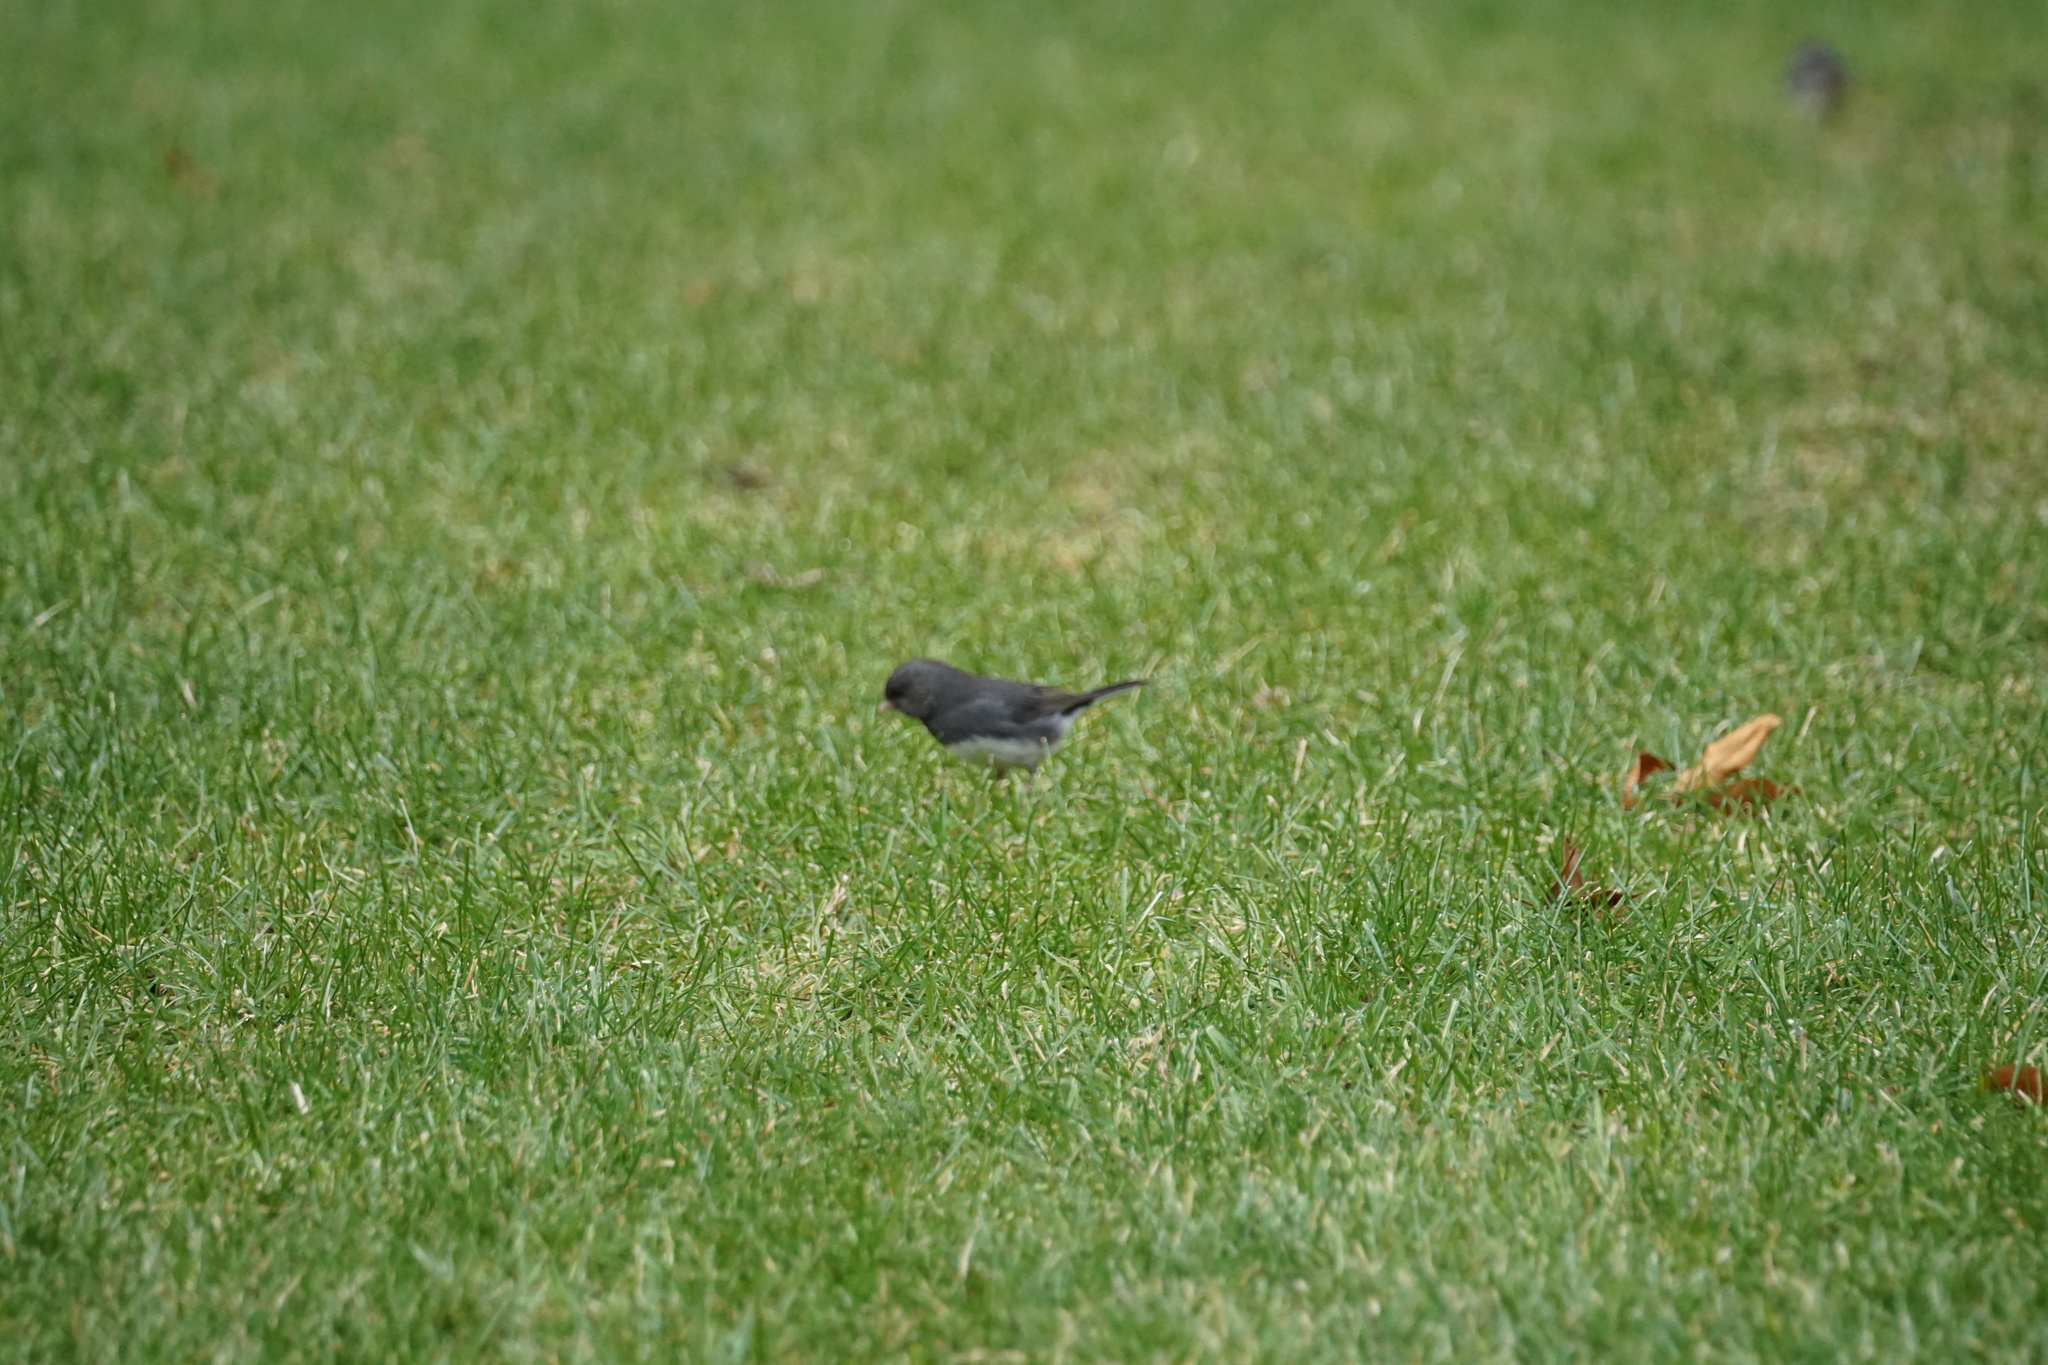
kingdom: Animalia
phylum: Chordata
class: Aves
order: Passeriformes
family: Passerellidae
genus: Junco
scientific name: Junco hyemalis
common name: Dark-eyed junco
